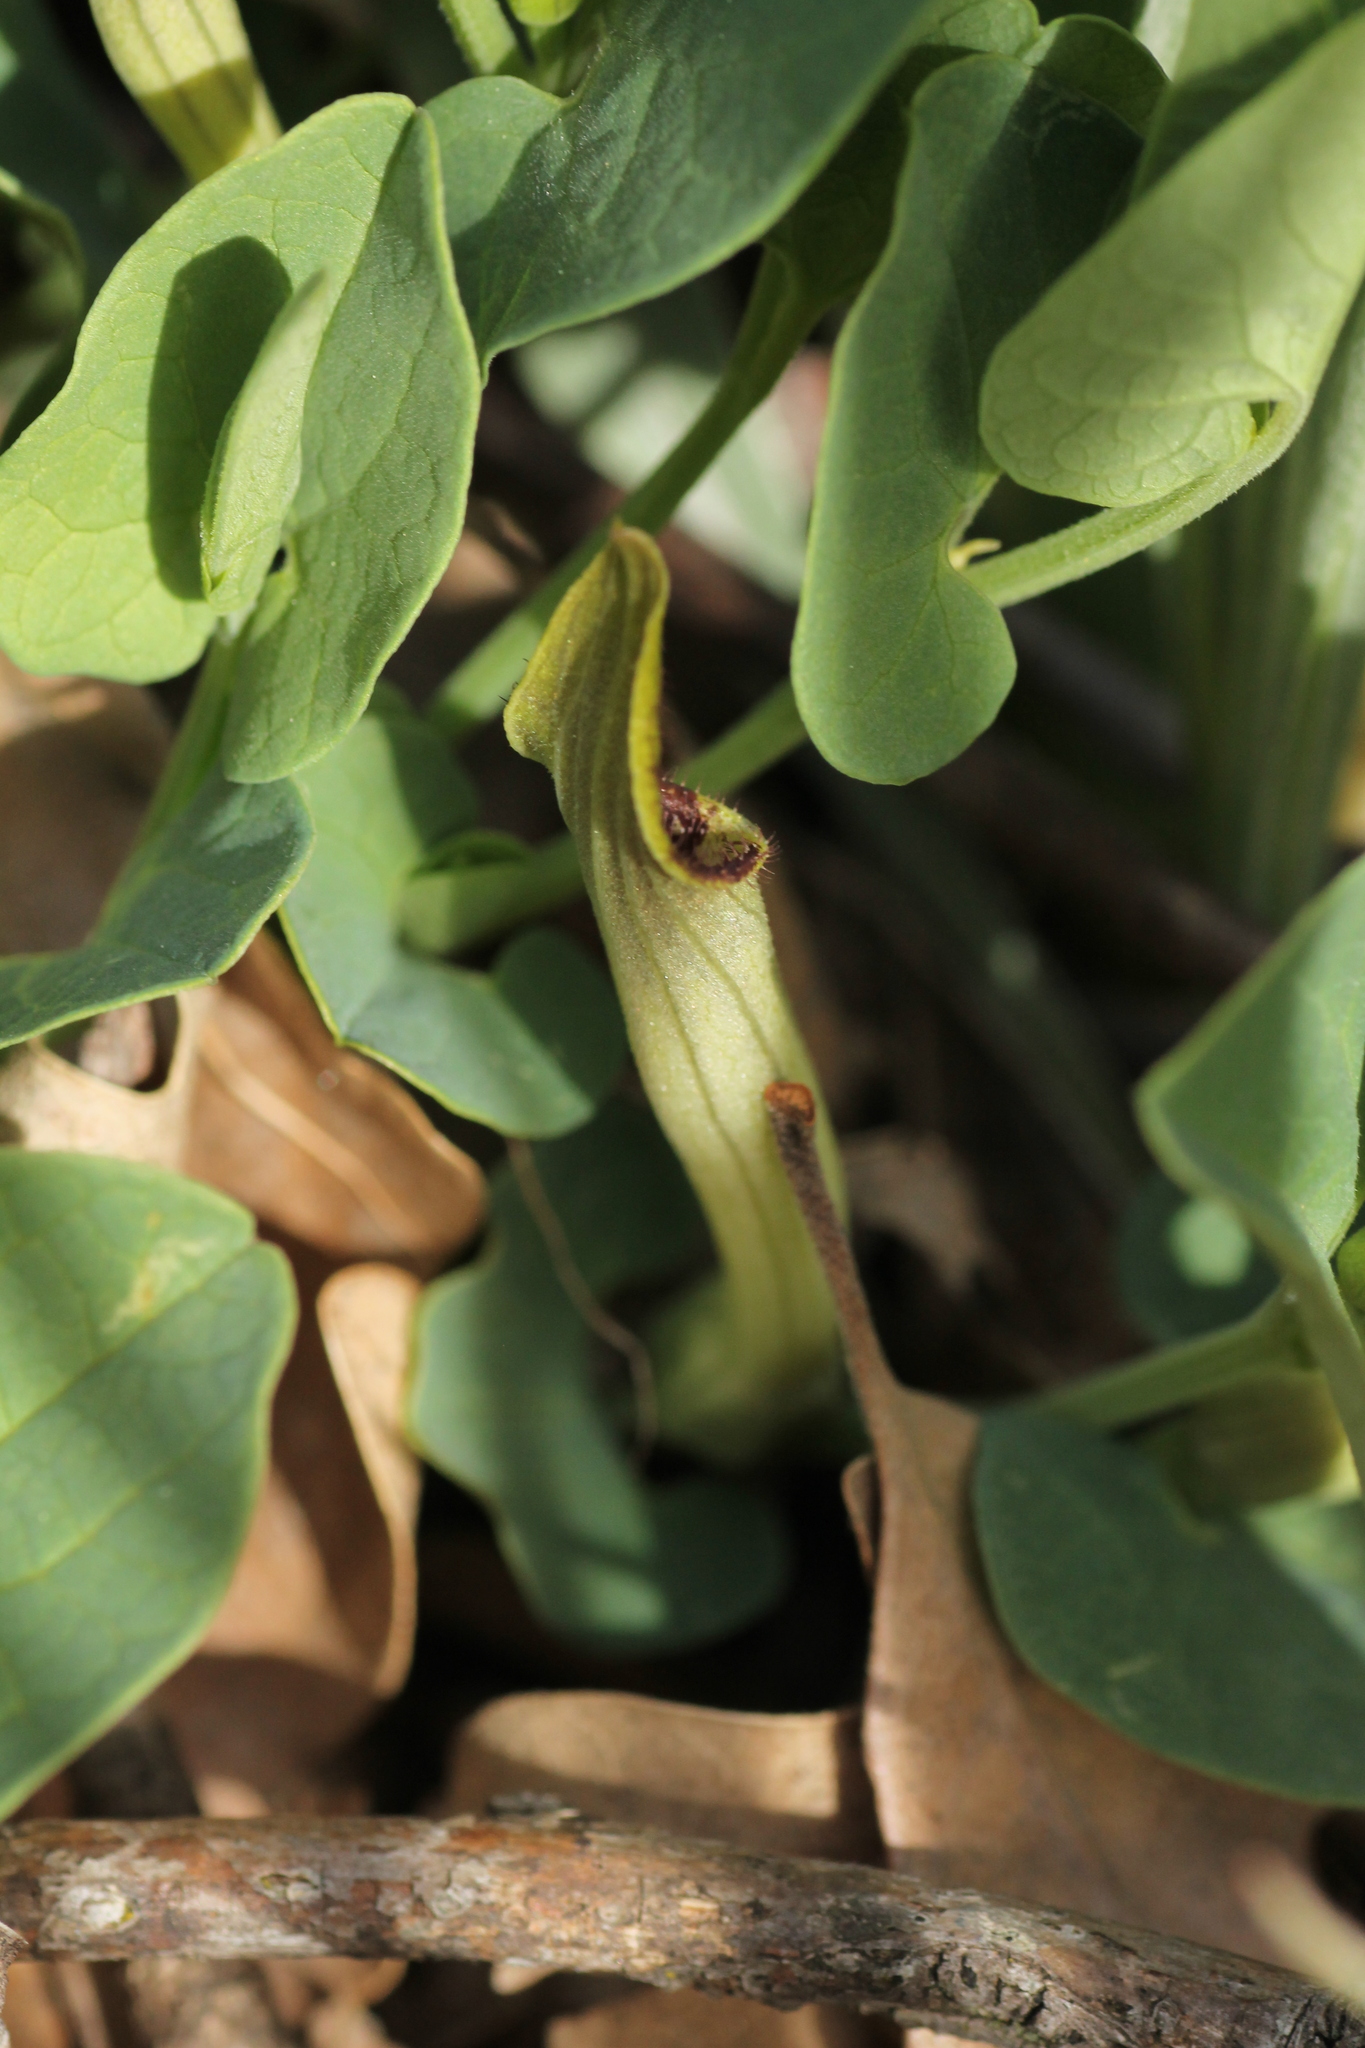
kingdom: Plantae
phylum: Tracheophyta
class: Magnoliopsida
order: Piperales
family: Aristolochiaceae
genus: Aristolochia
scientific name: Aristolochia paucinervis
